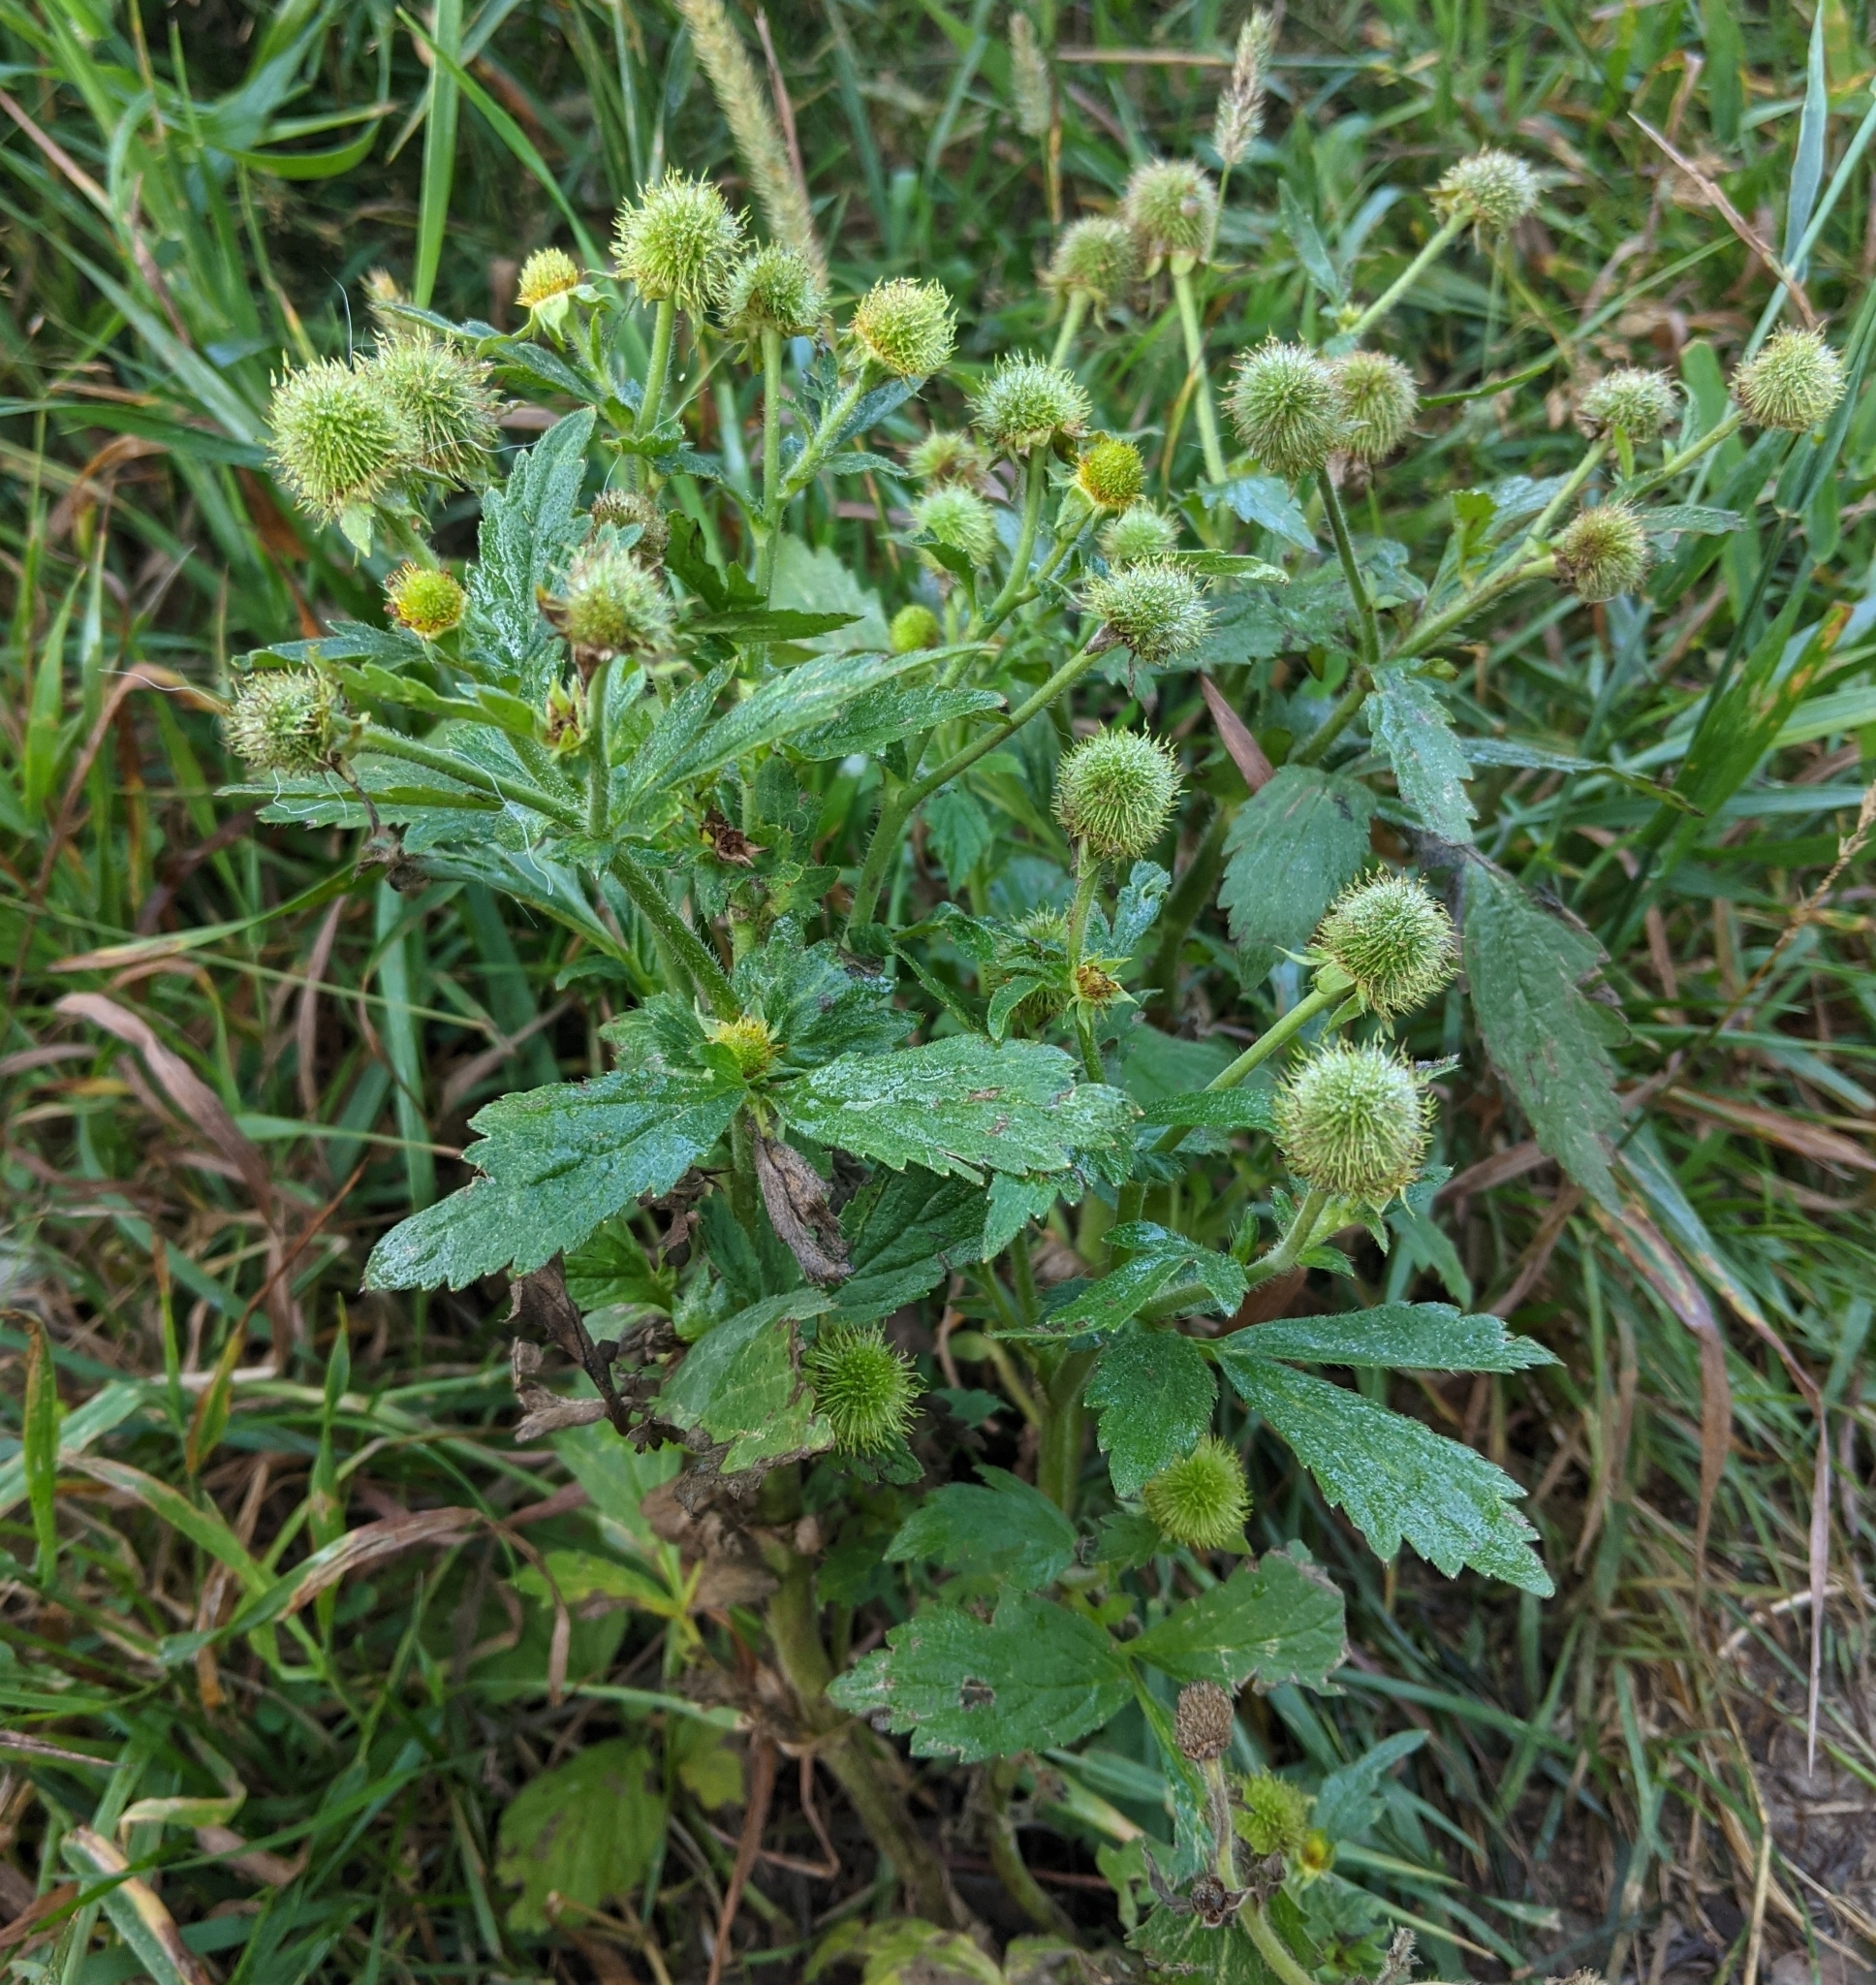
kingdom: Plantae
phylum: Tracheophyta
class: Magnoliopsida
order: Rosales
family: Rosaceae
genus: Geum
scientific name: Geum aleppicum
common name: Yellow avens
